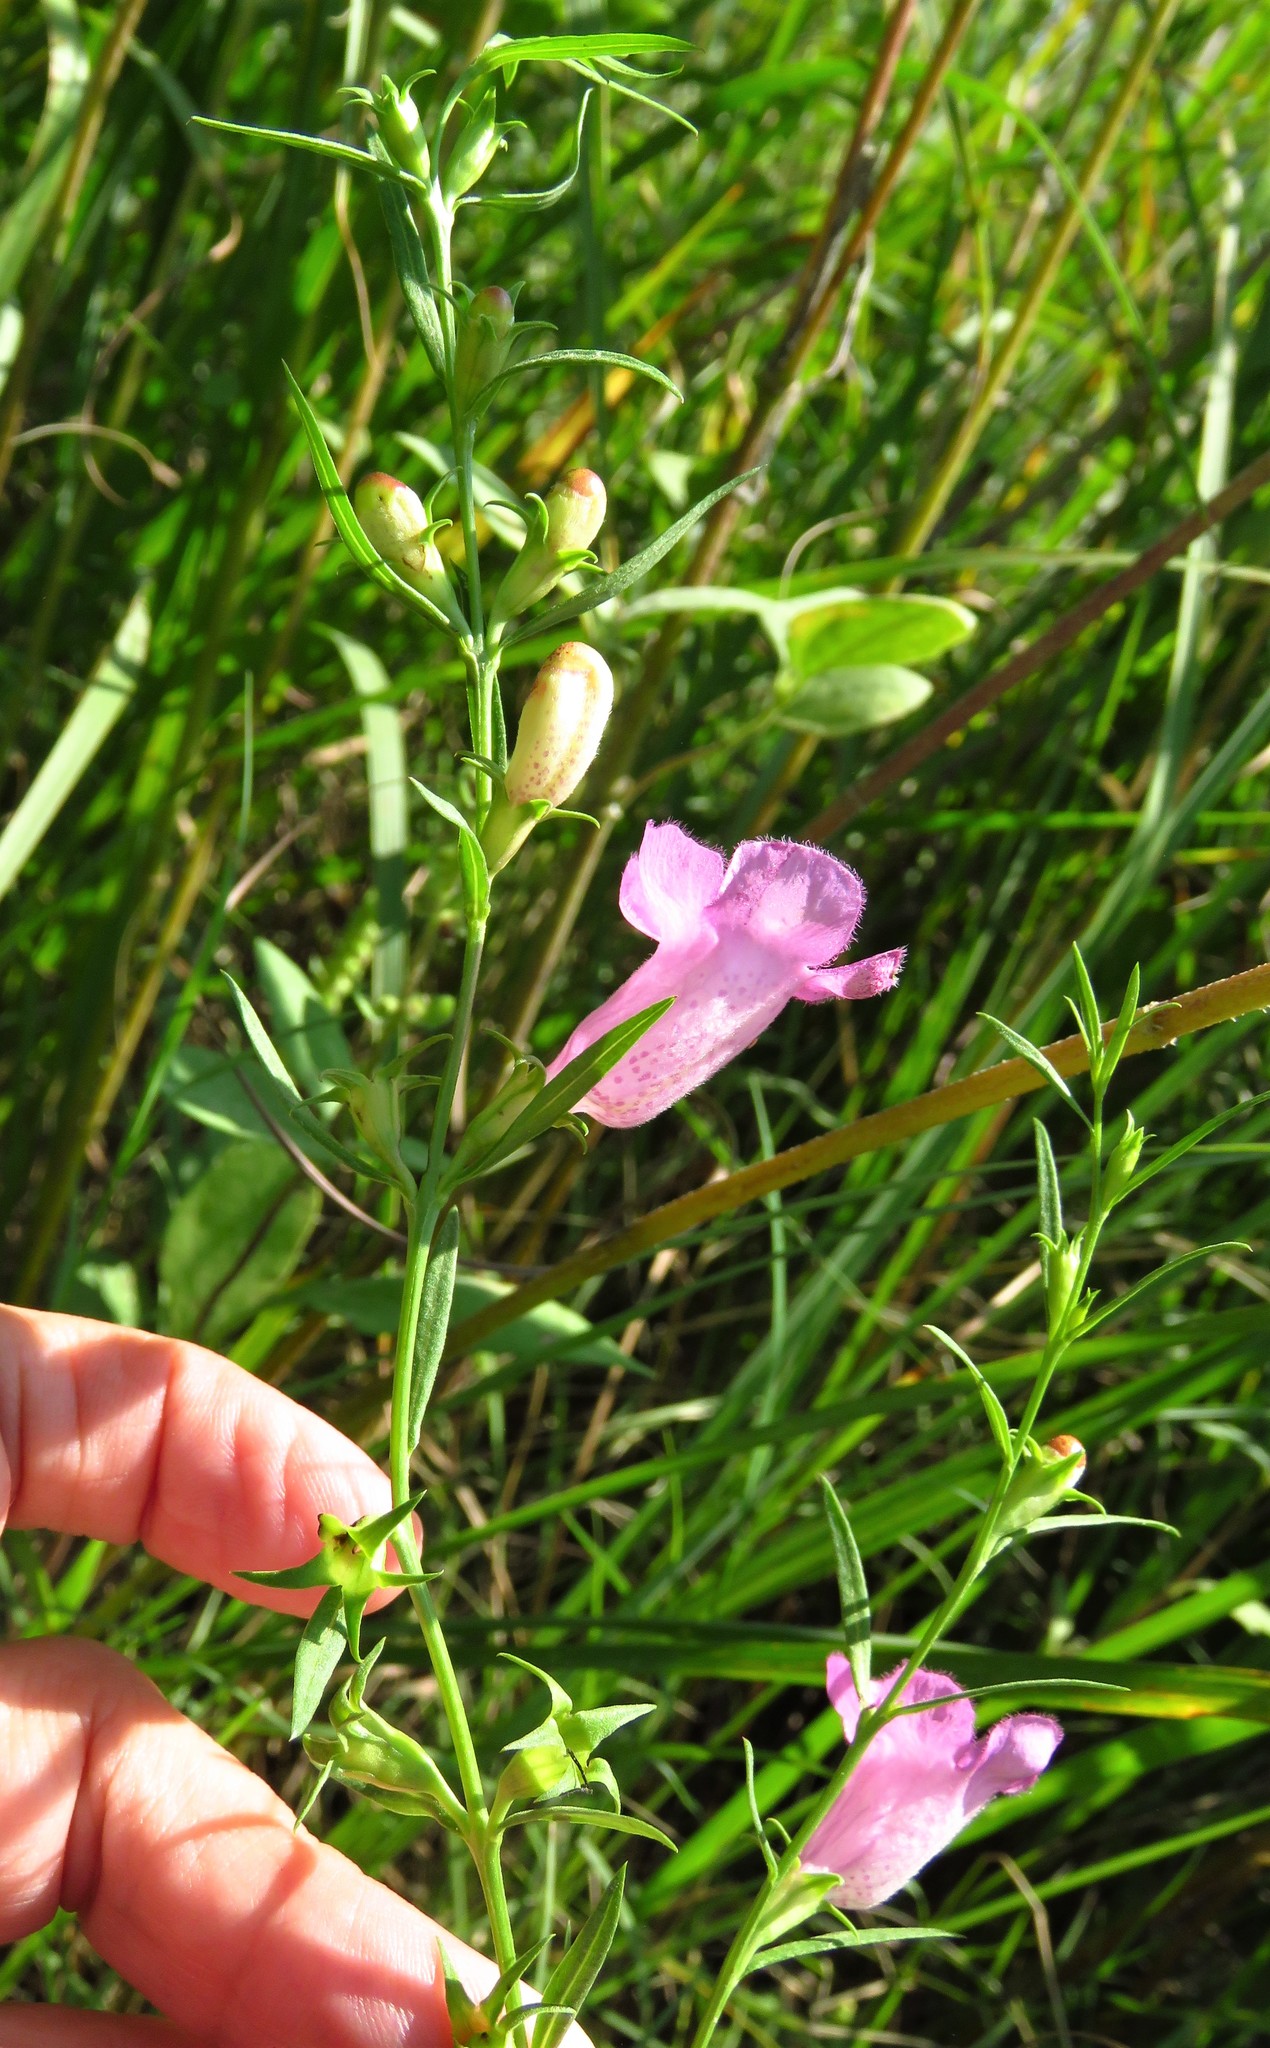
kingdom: Plantae
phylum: Tracheophyta
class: Magnoliopsida
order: Lamiales
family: Orobanchaceae
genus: Agalinis
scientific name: Agalinis heterophylla
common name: Prairie agalinis
